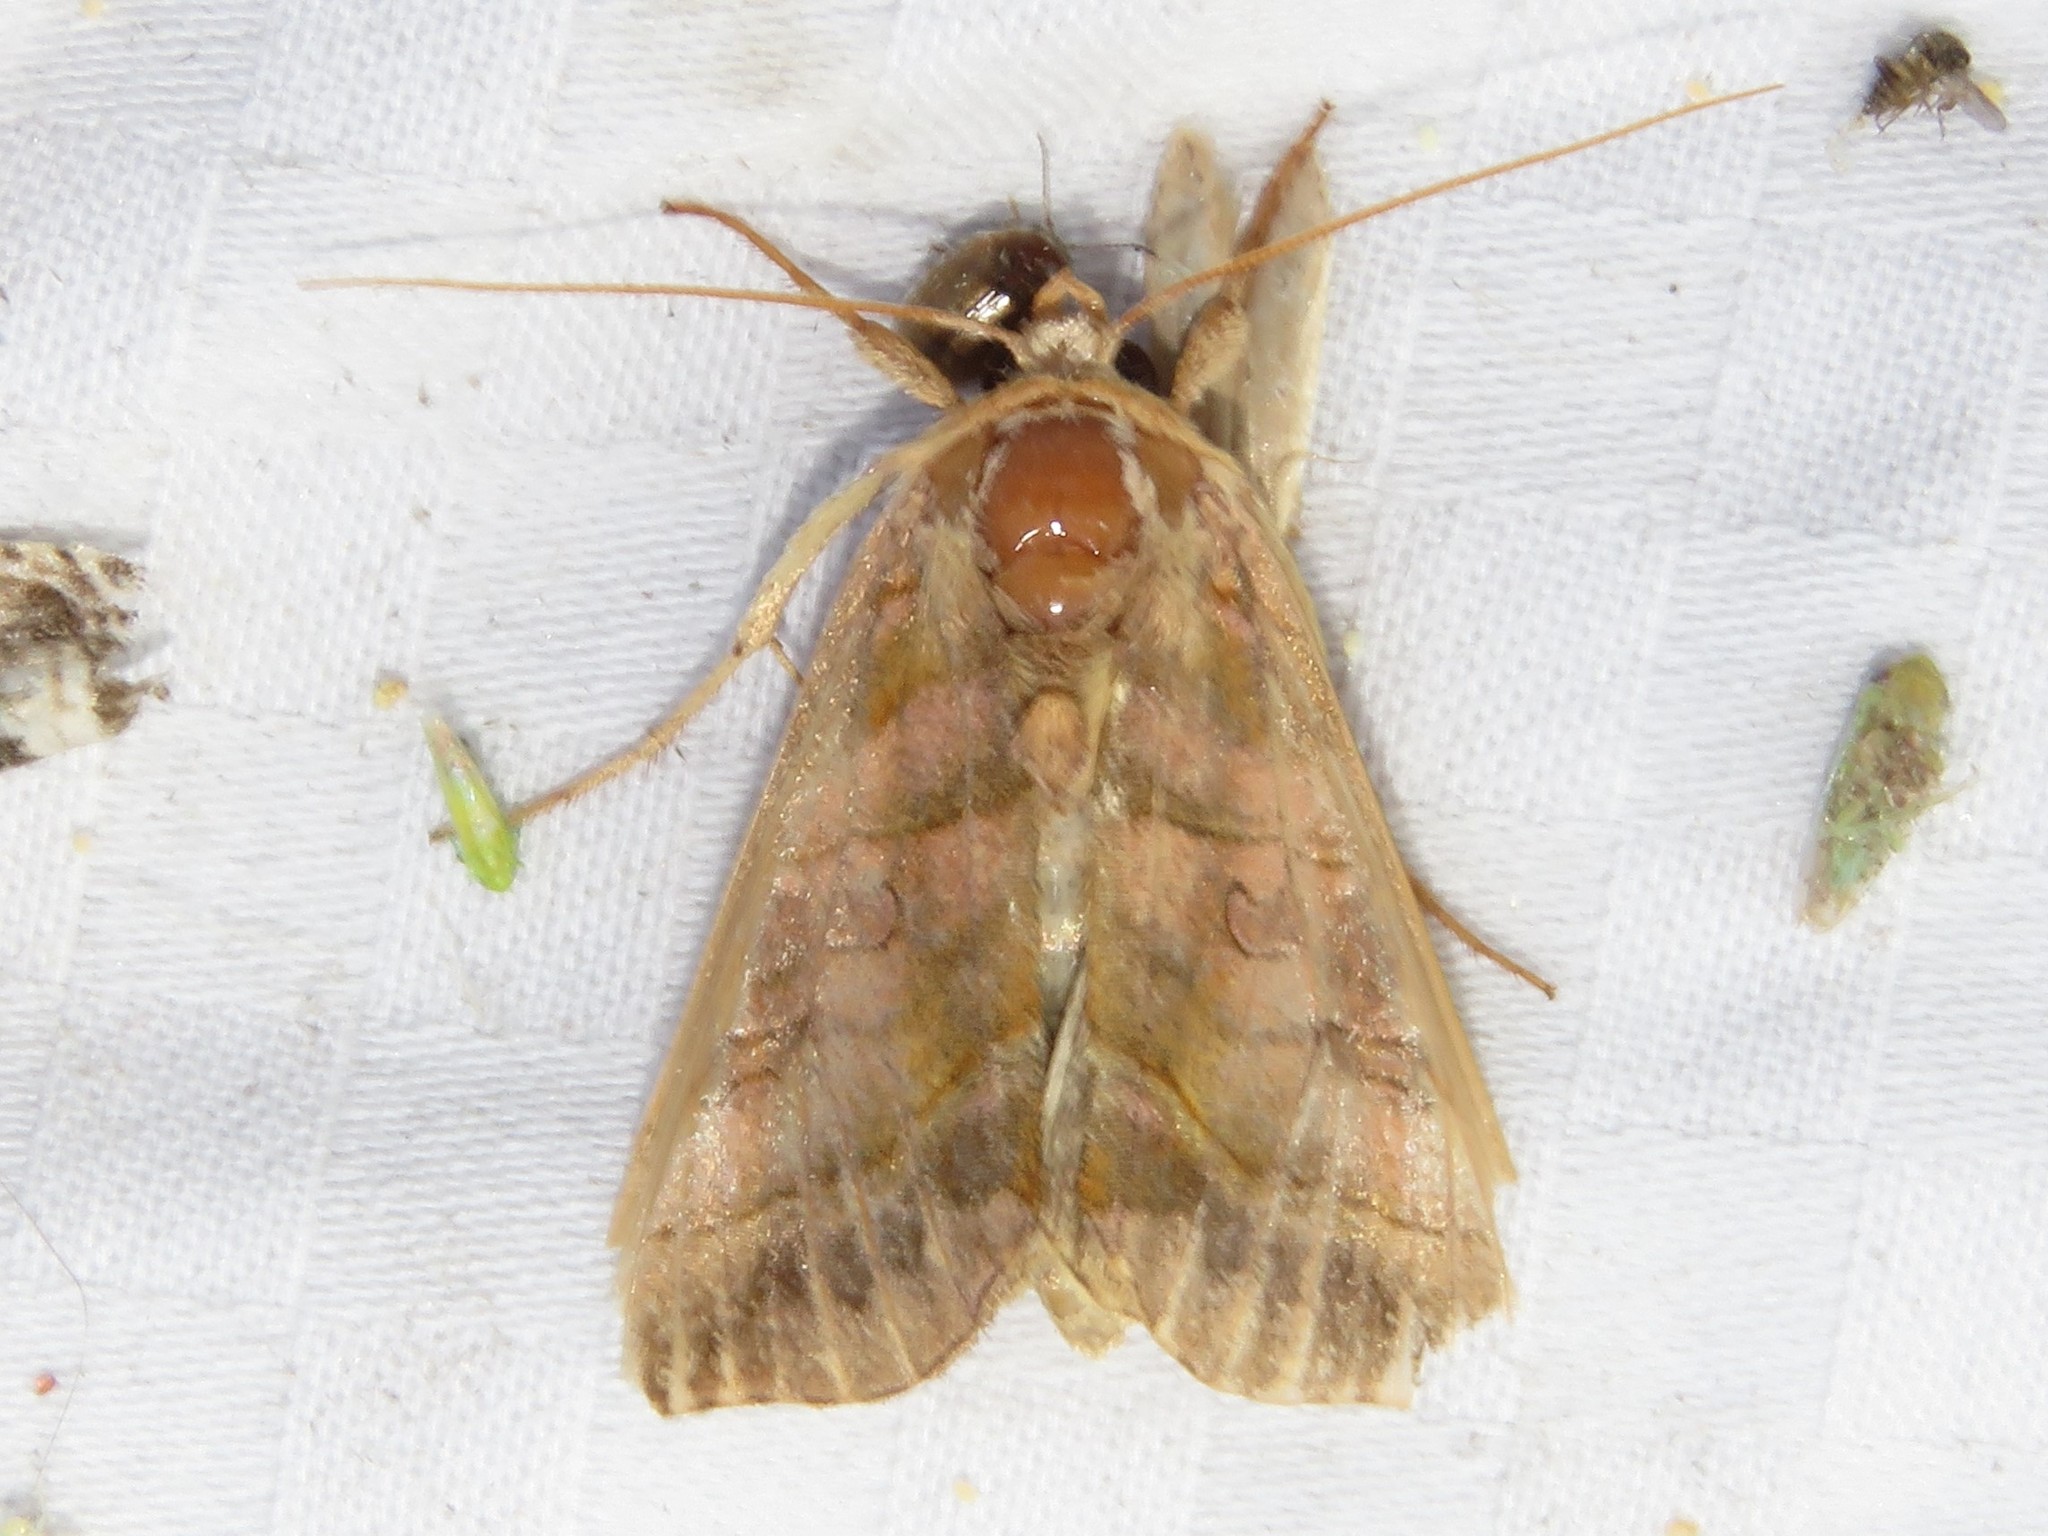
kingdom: Animalia
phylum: Arthropoda
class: Insecta
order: Lepidoptera
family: Noctuidae
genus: Diachrysia
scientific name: Diachrysia aereoides
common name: Dark-spotted looper moth
